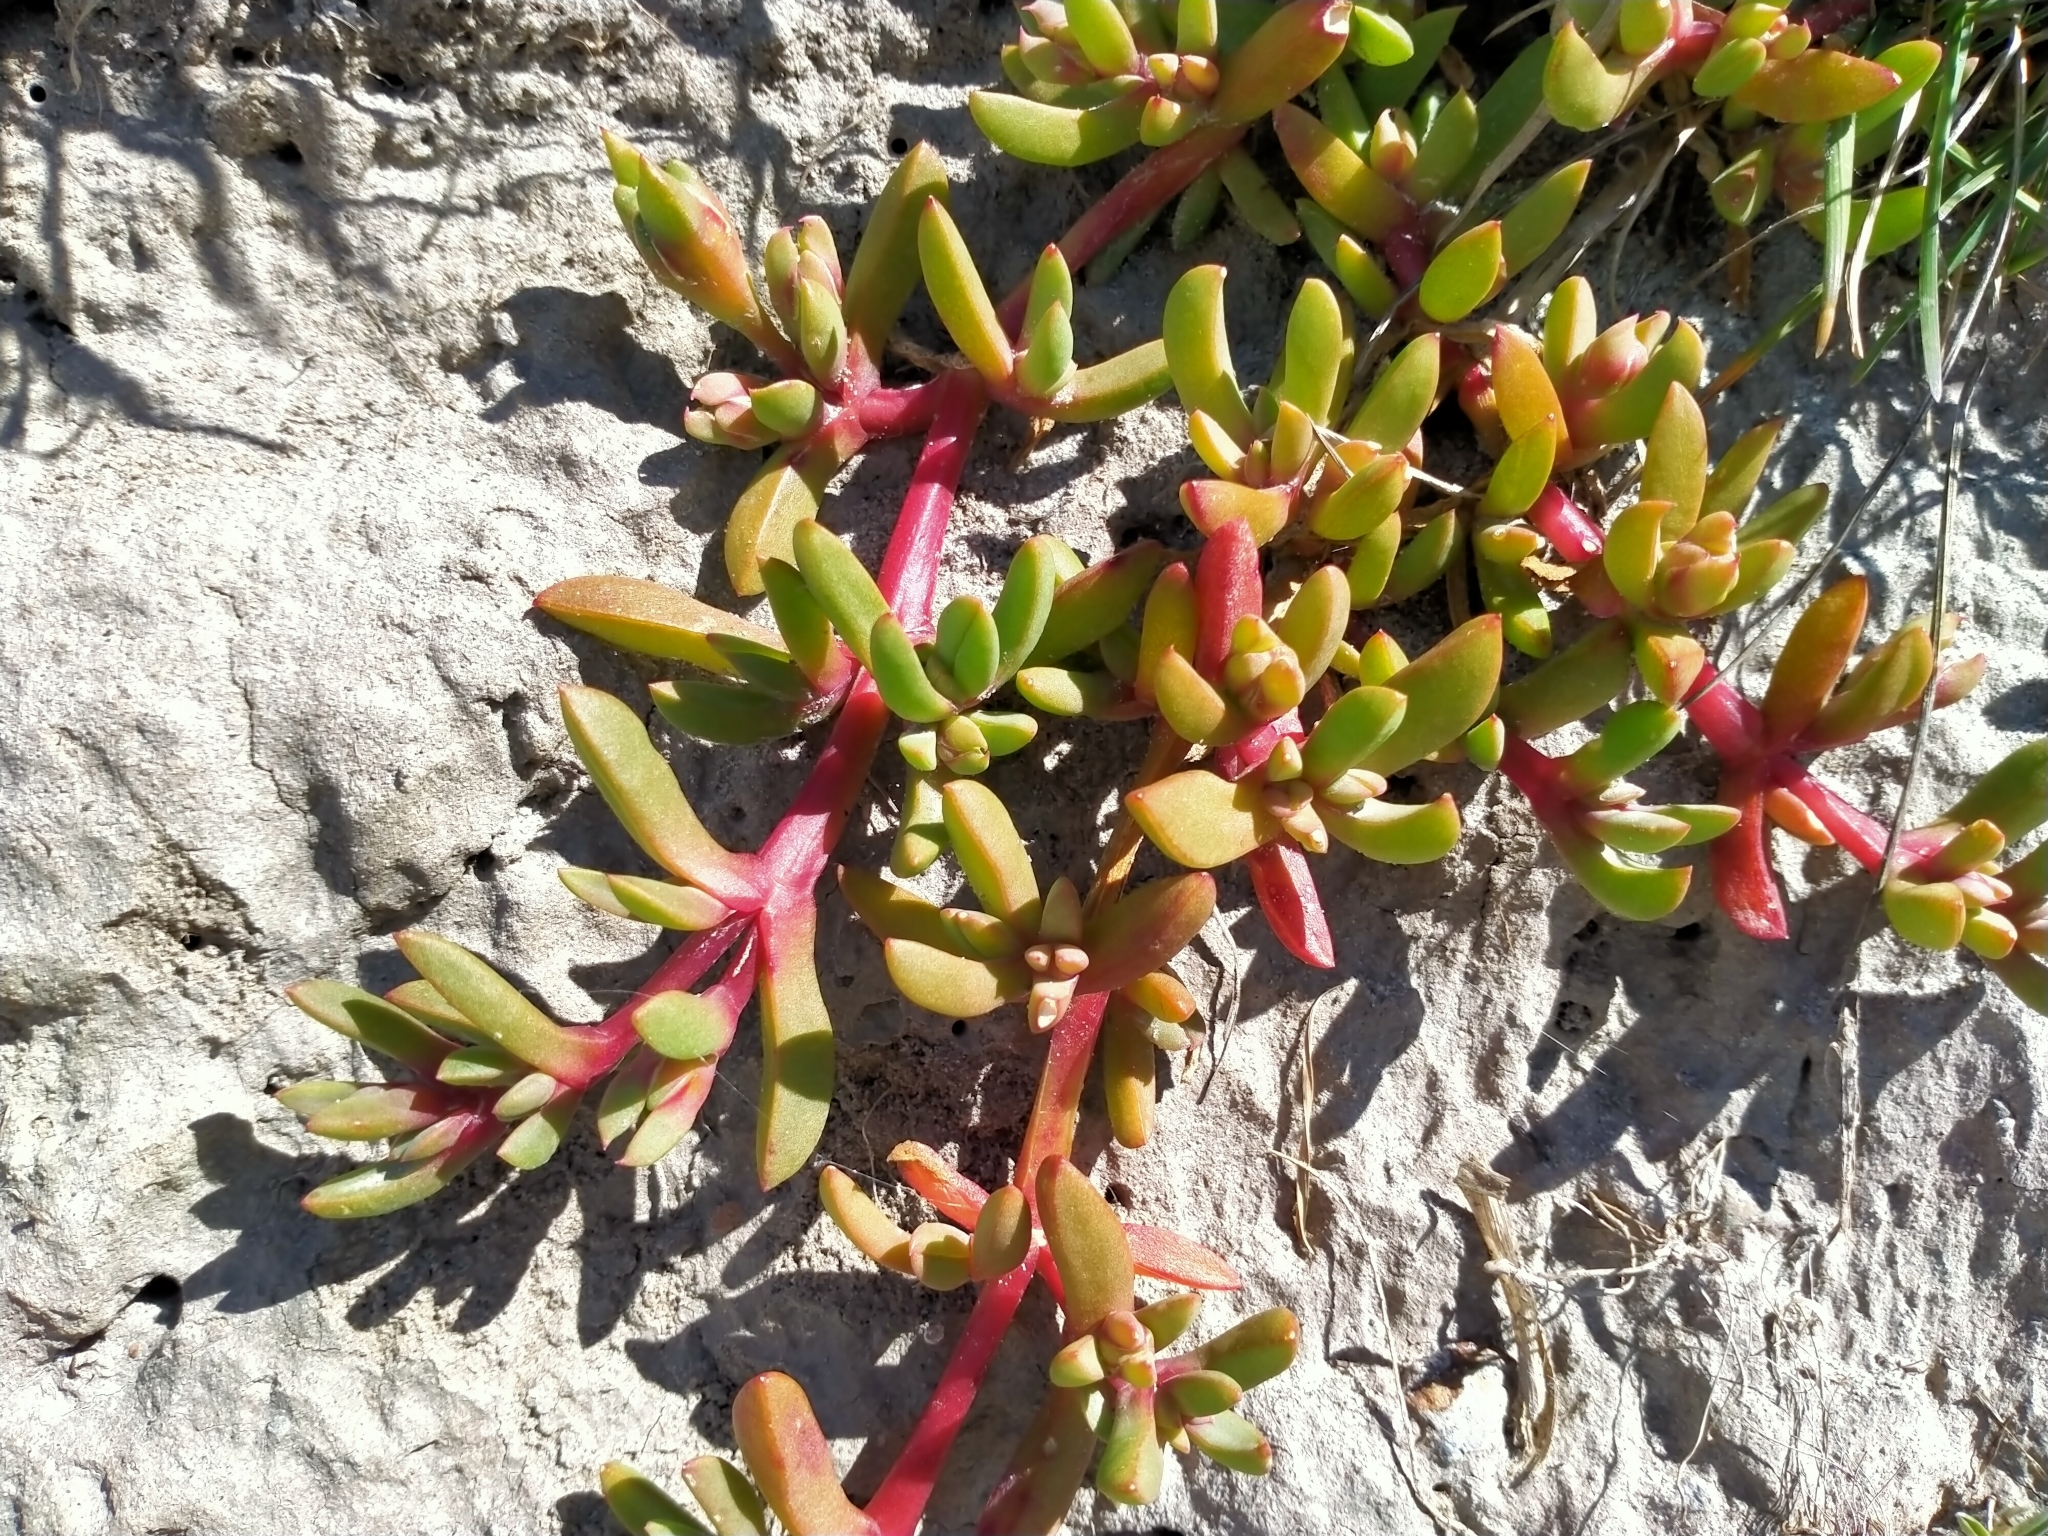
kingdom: Plantae
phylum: Tracheophyta
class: Magnoliopsida
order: Caryophyllales
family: Aizoaceae
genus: Disphyma
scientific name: Disphyma australe
